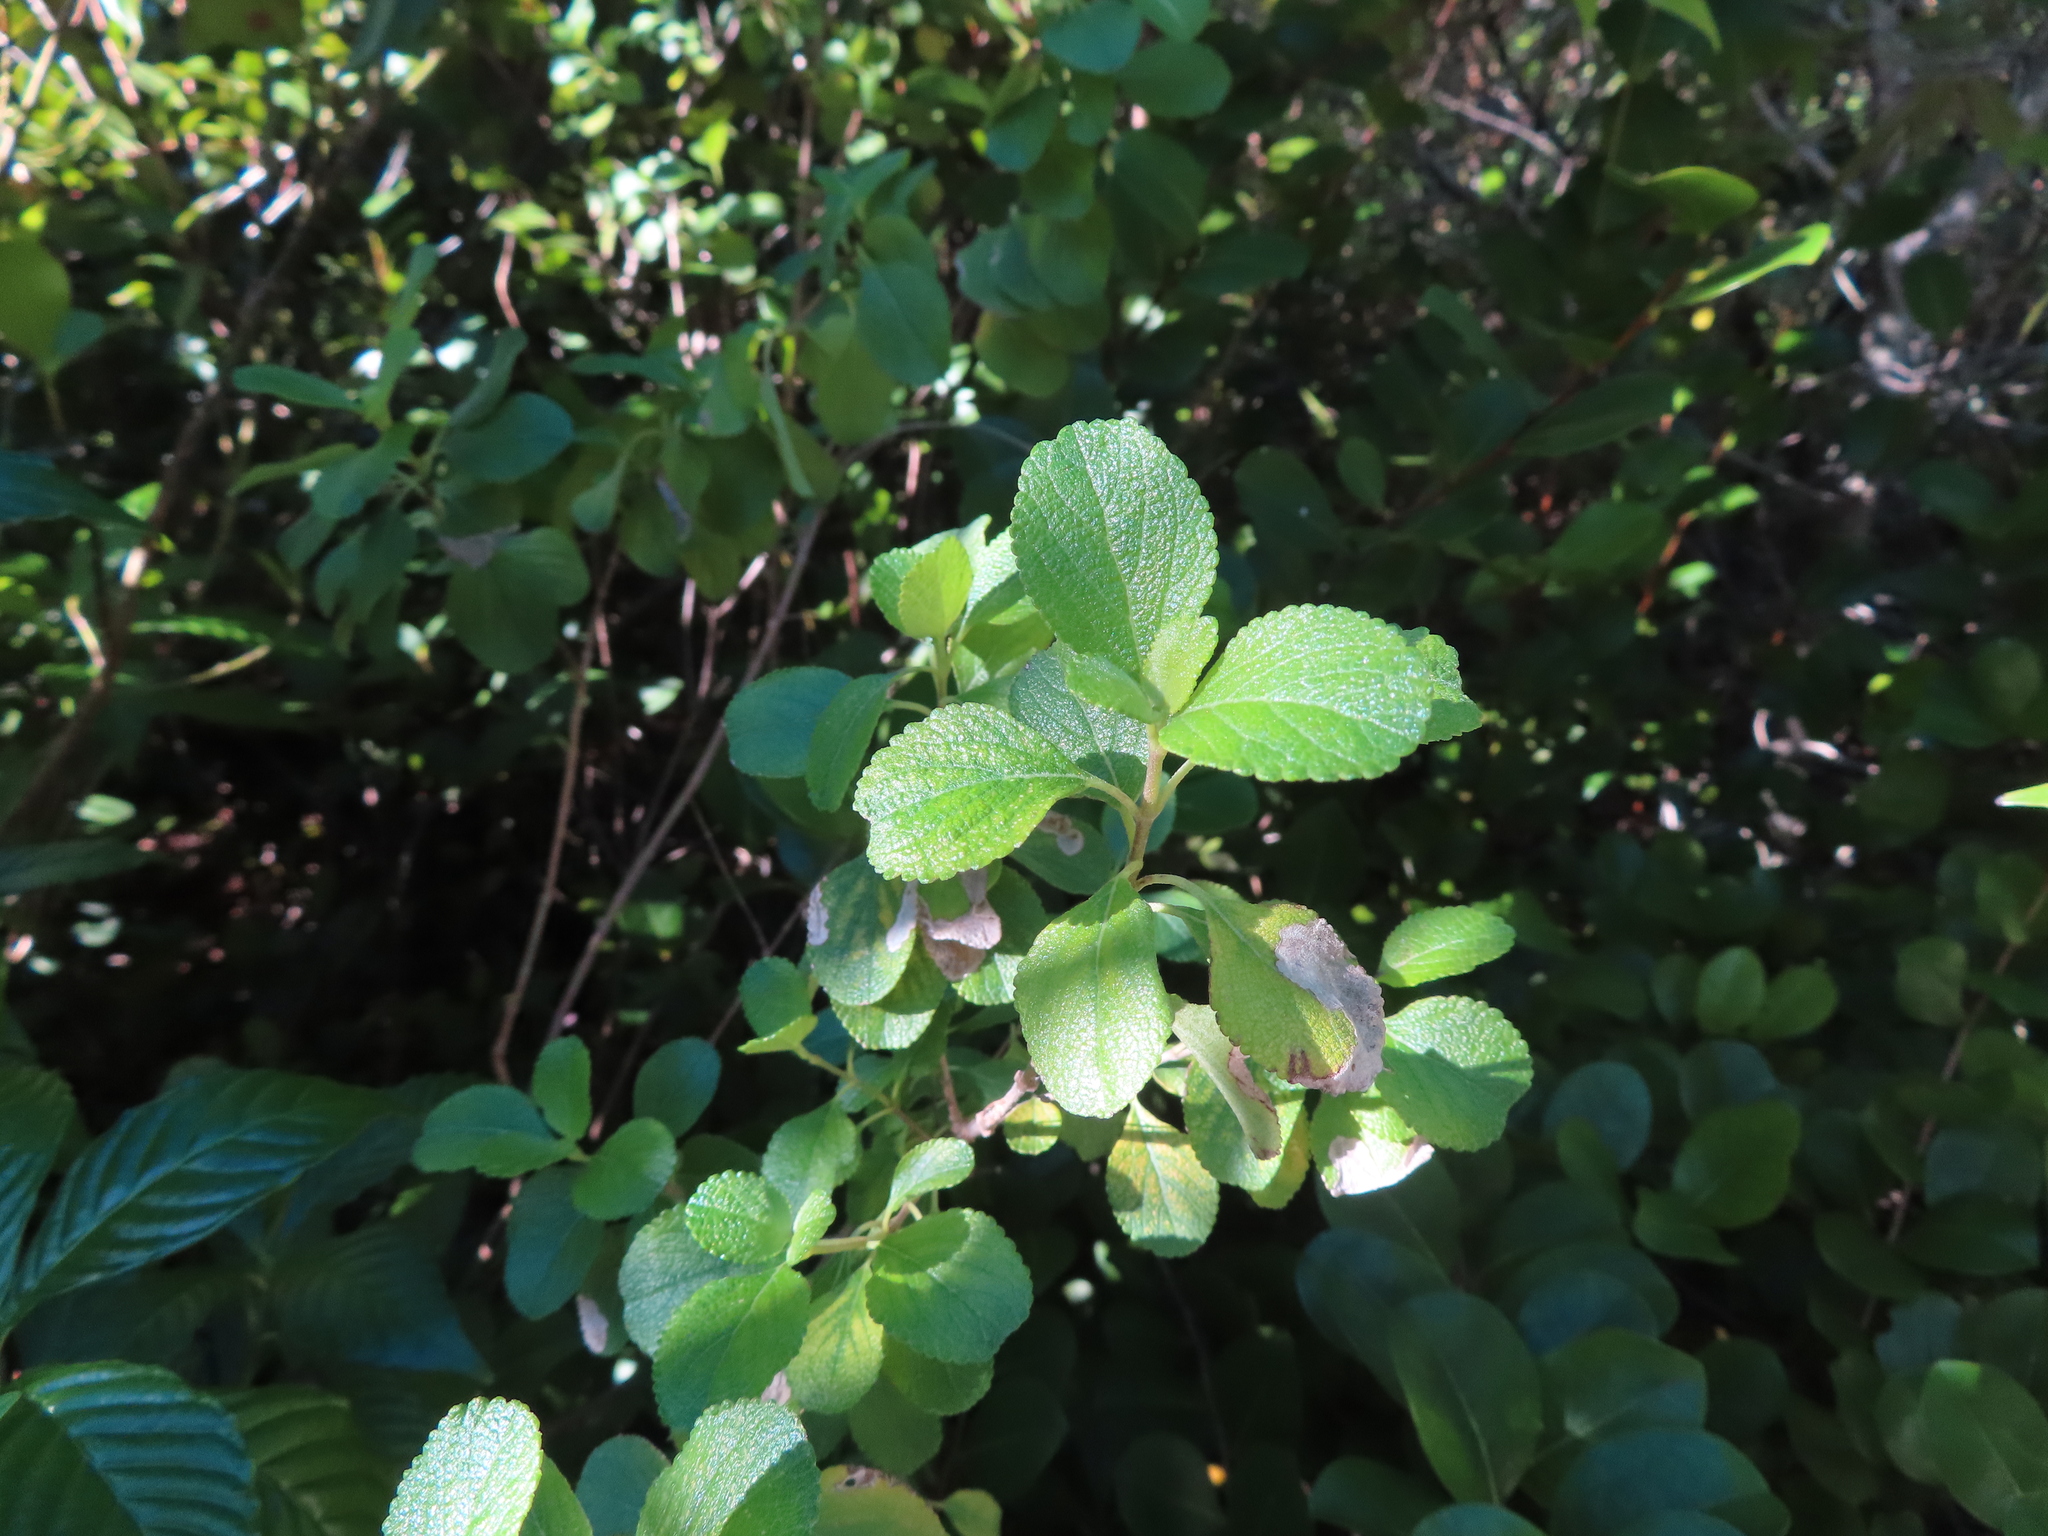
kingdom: Animalia
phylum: Arthropoda
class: Insecta
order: Diptera
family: Agromyzidae
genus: Calycomyza
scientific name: Calycomyza lantanae
